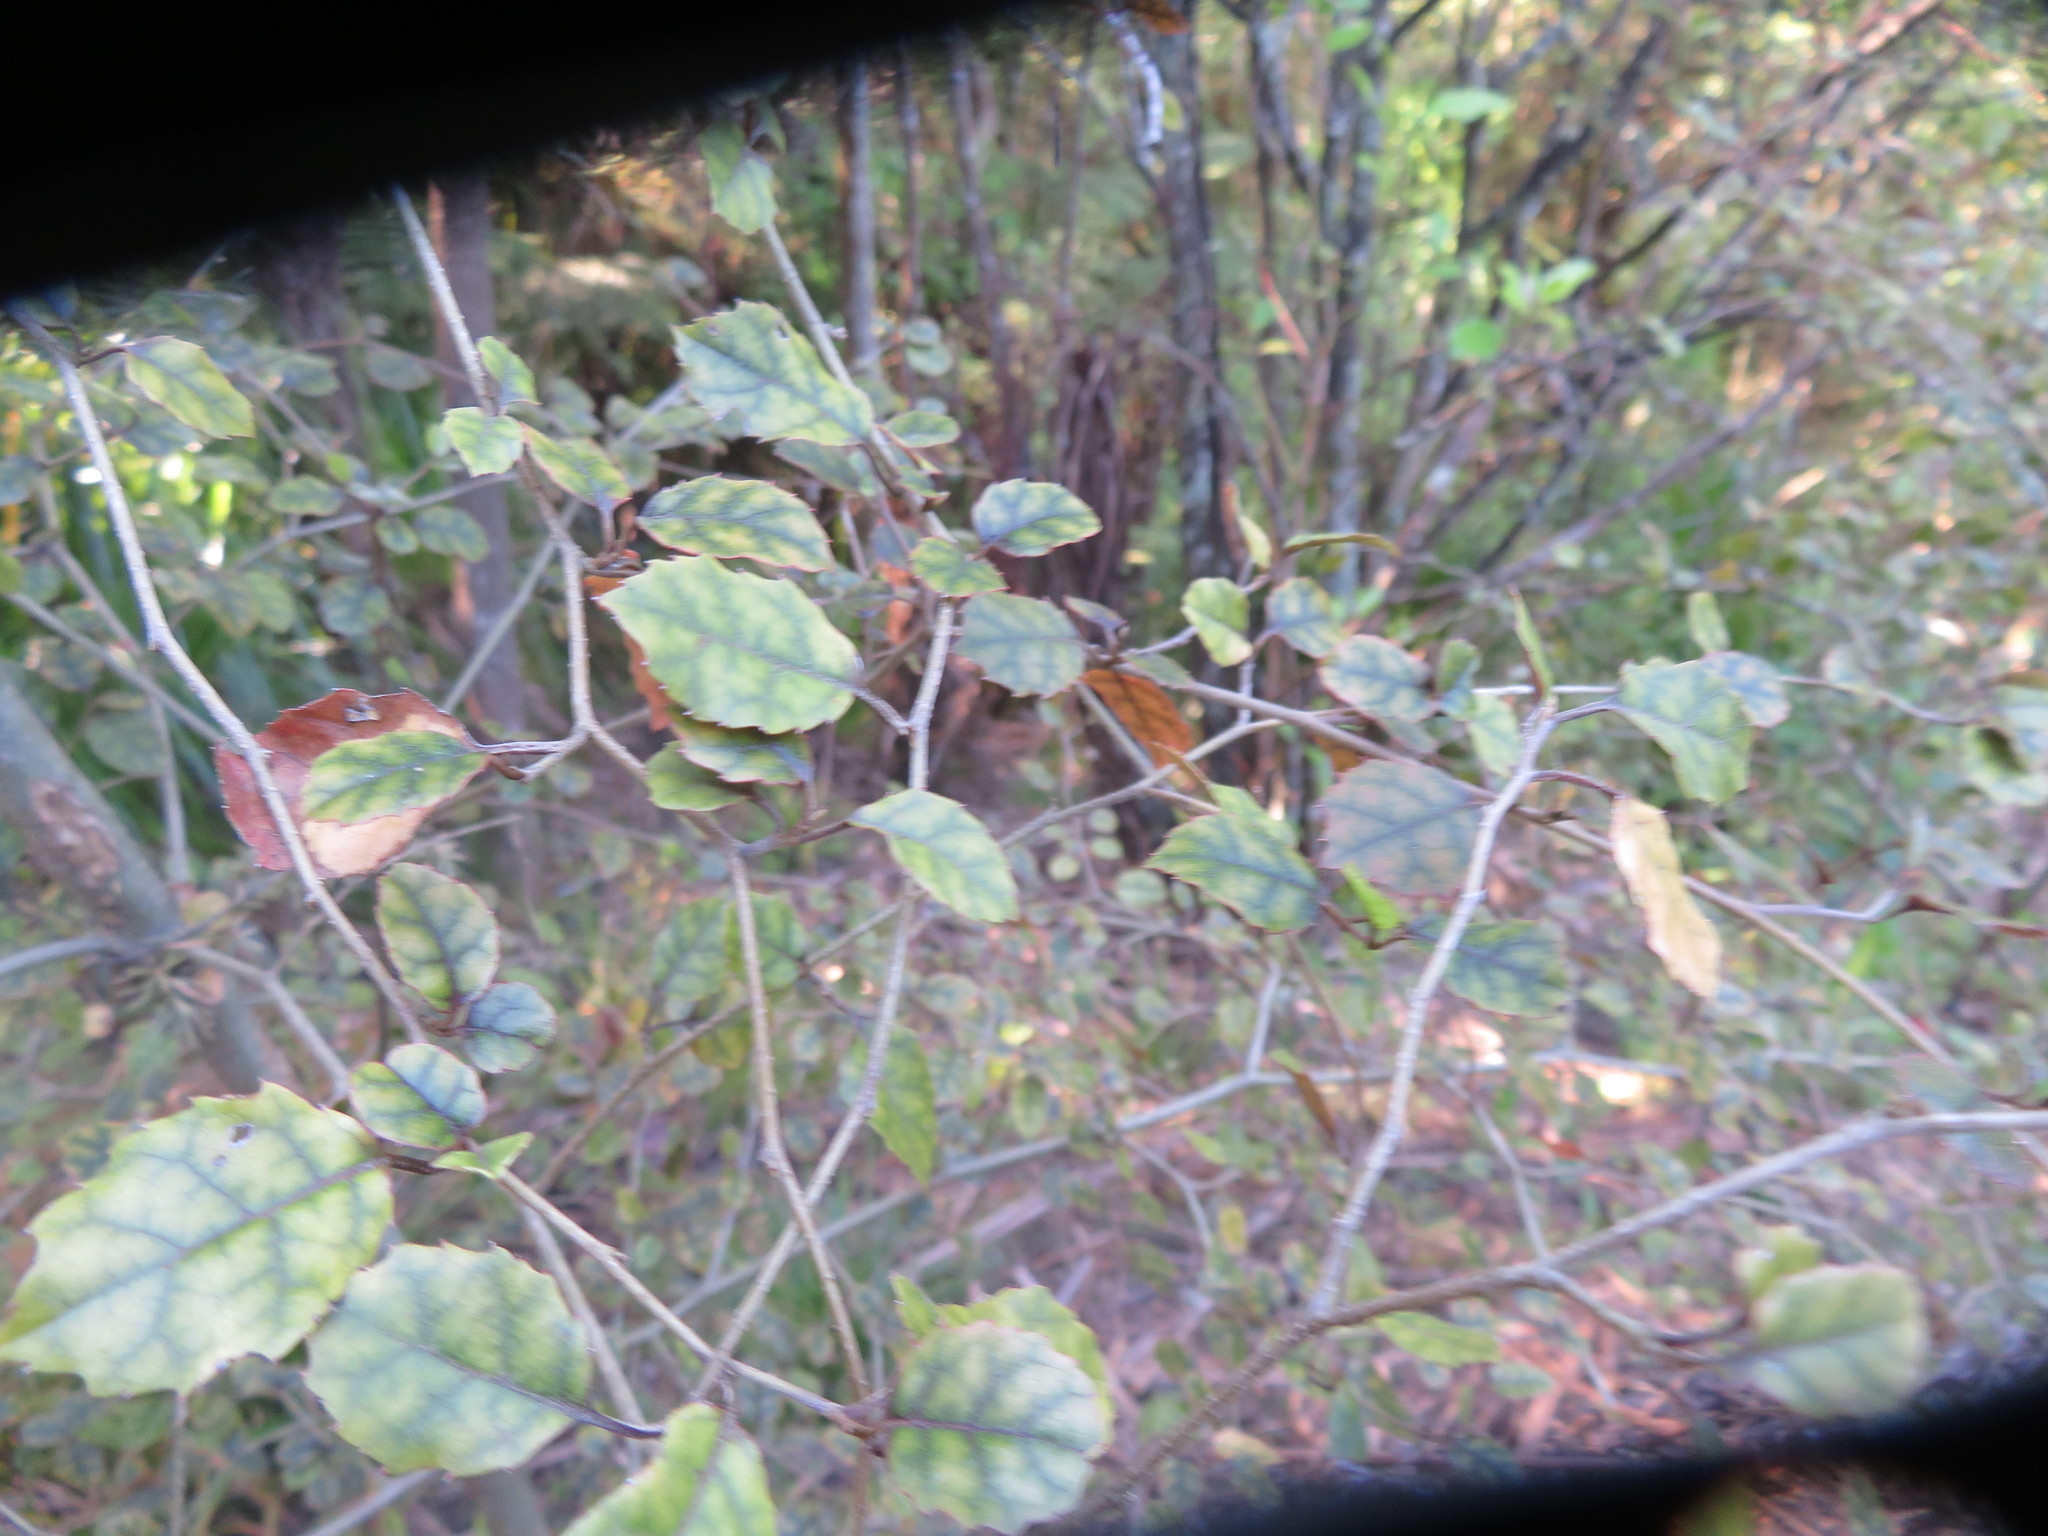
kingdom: Plantae
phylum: Tracheophyta
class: Magnoliopsida
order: Asterales
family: Rousseaceae
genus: Carpodetus
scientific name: Carpodetus serratus
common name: White mapau
